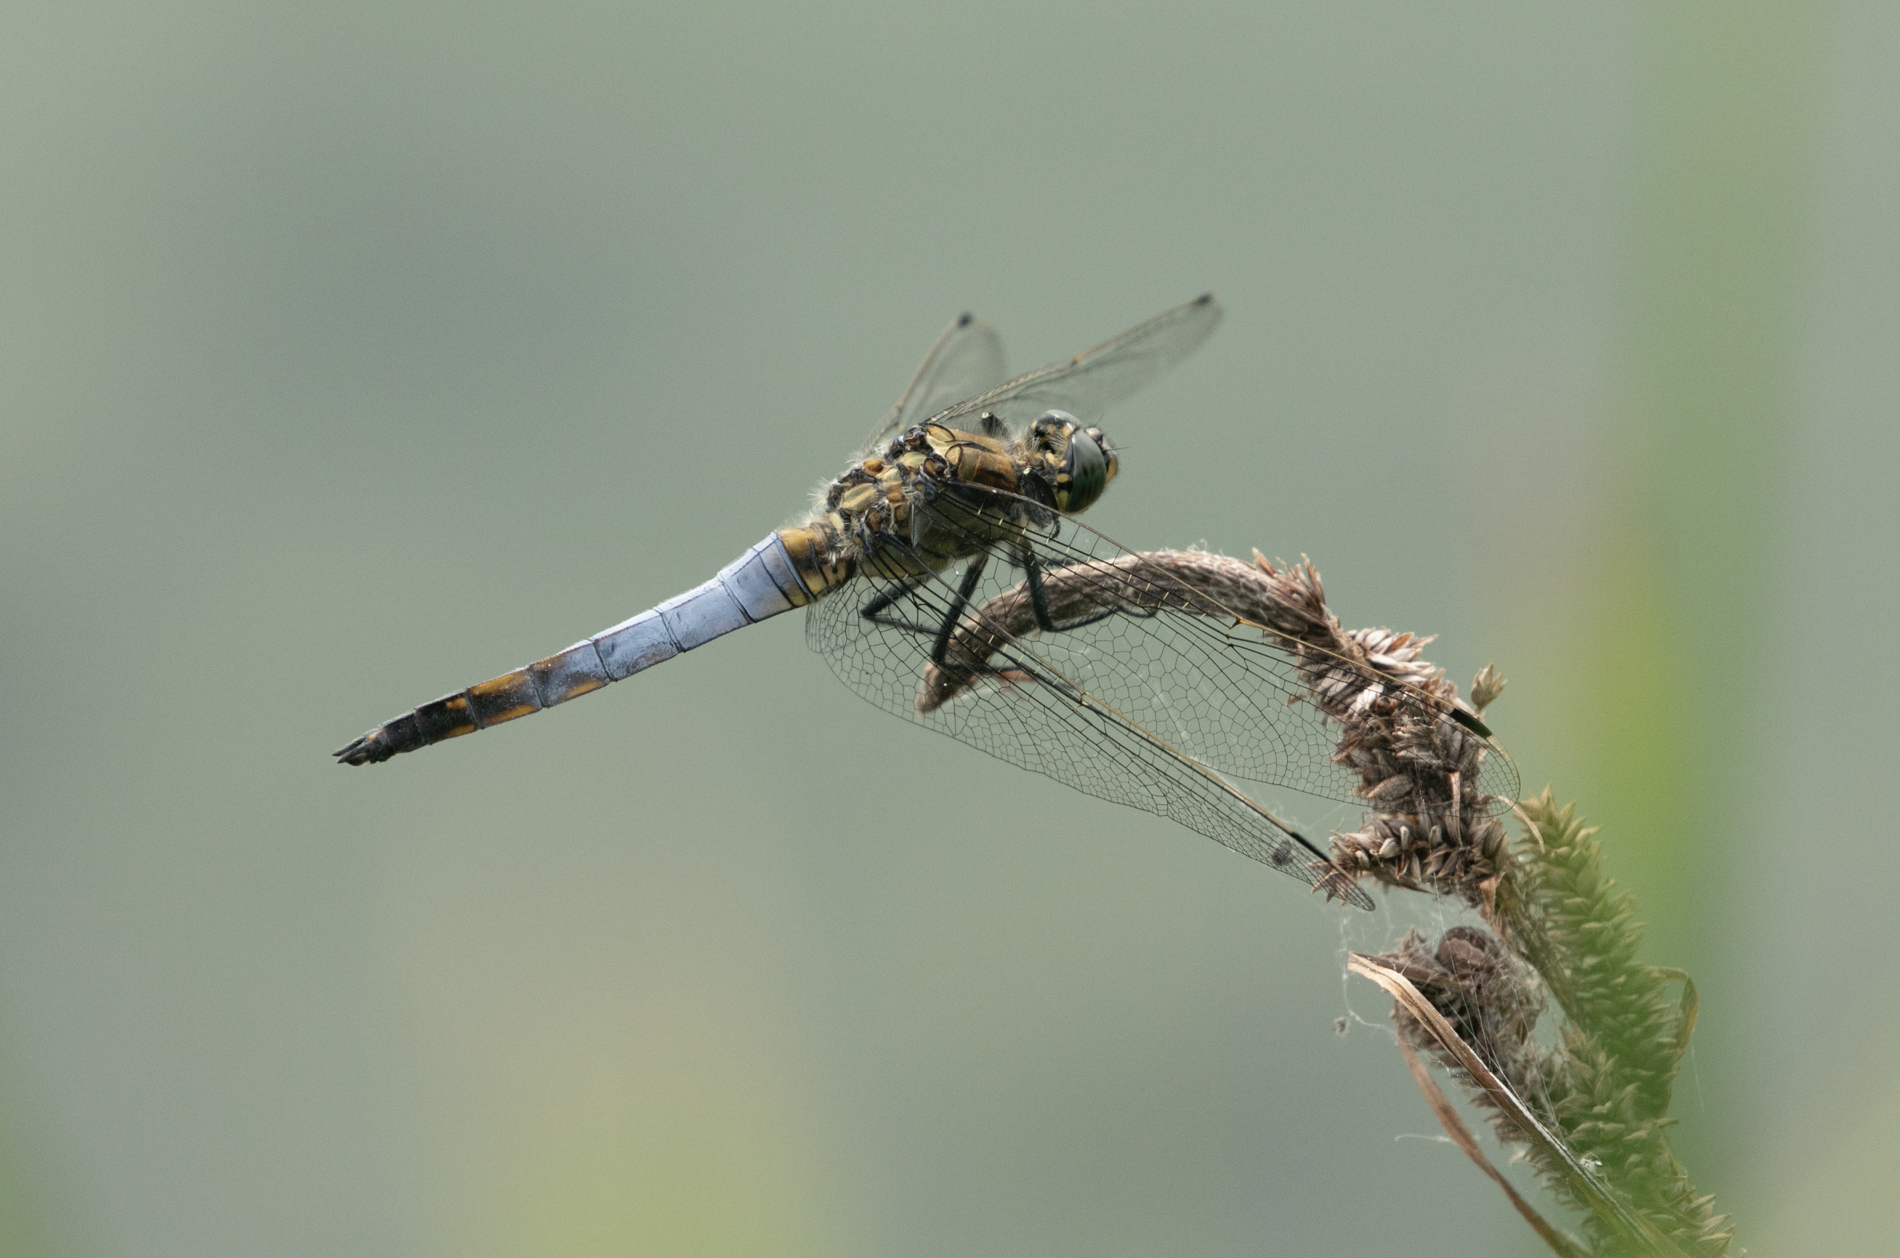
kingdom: Animalia
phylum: Arthropoda
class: Insecta
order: Odonata
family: Libellulidae
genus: Orthetrum
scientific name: Orthetrum cancellatum
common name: Black-tailed skimmer
